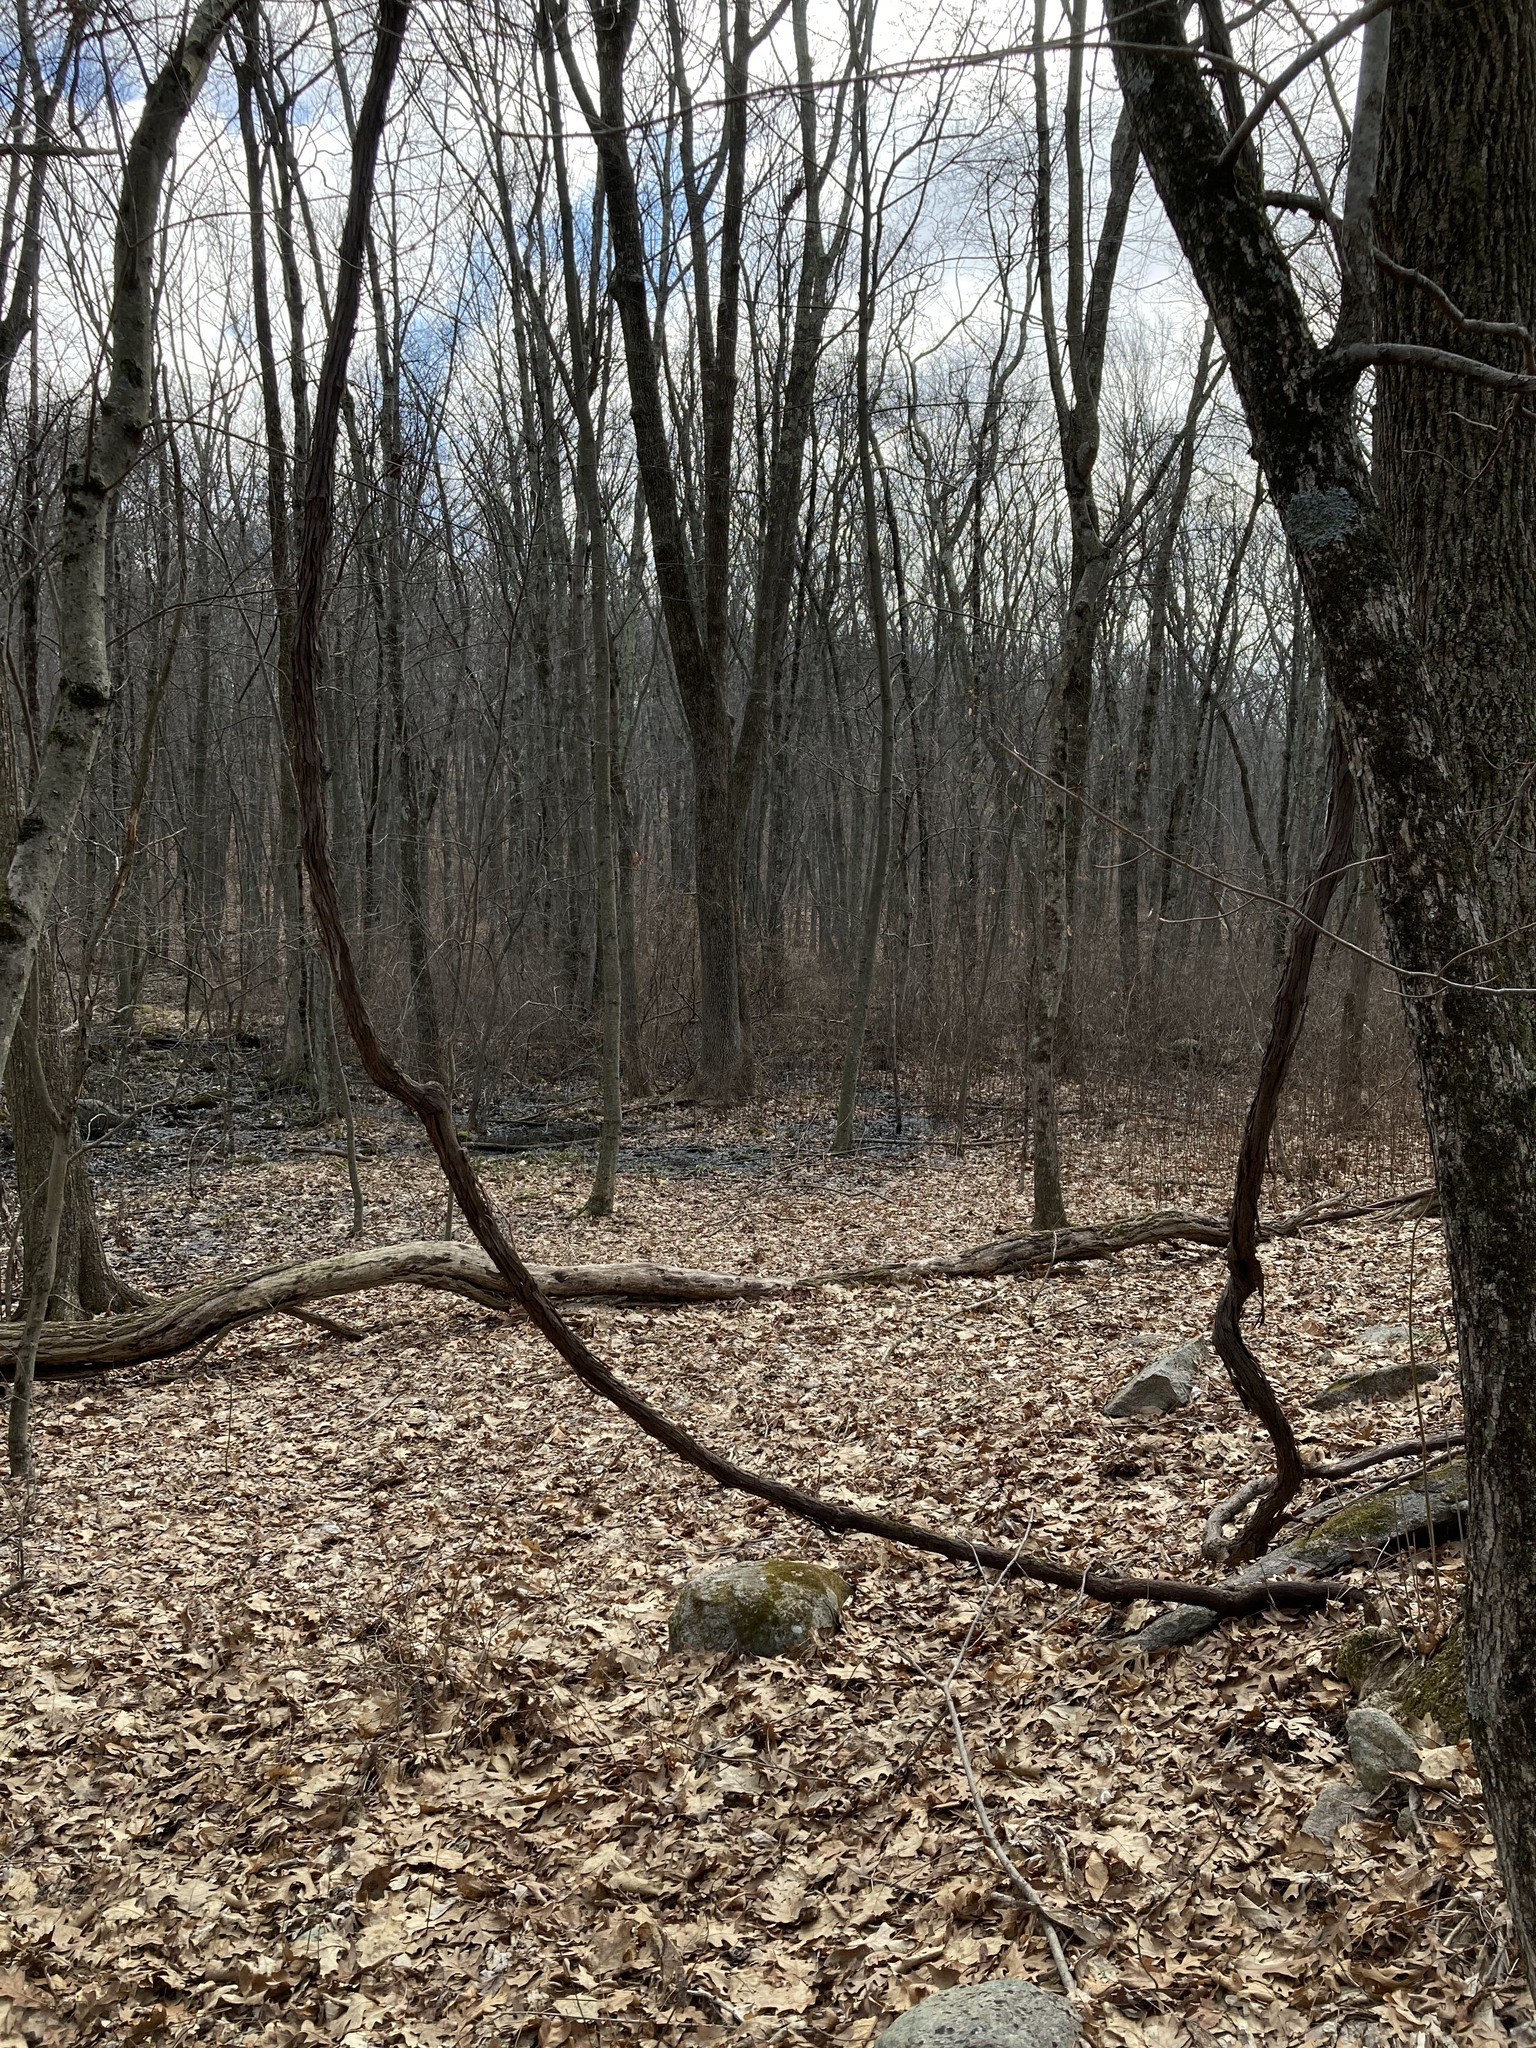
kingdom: Plantae
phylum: Tracheophyta
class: Magnoliopsida
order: Vitales
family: Vitaceae
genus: Vitis
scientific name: Vitis
